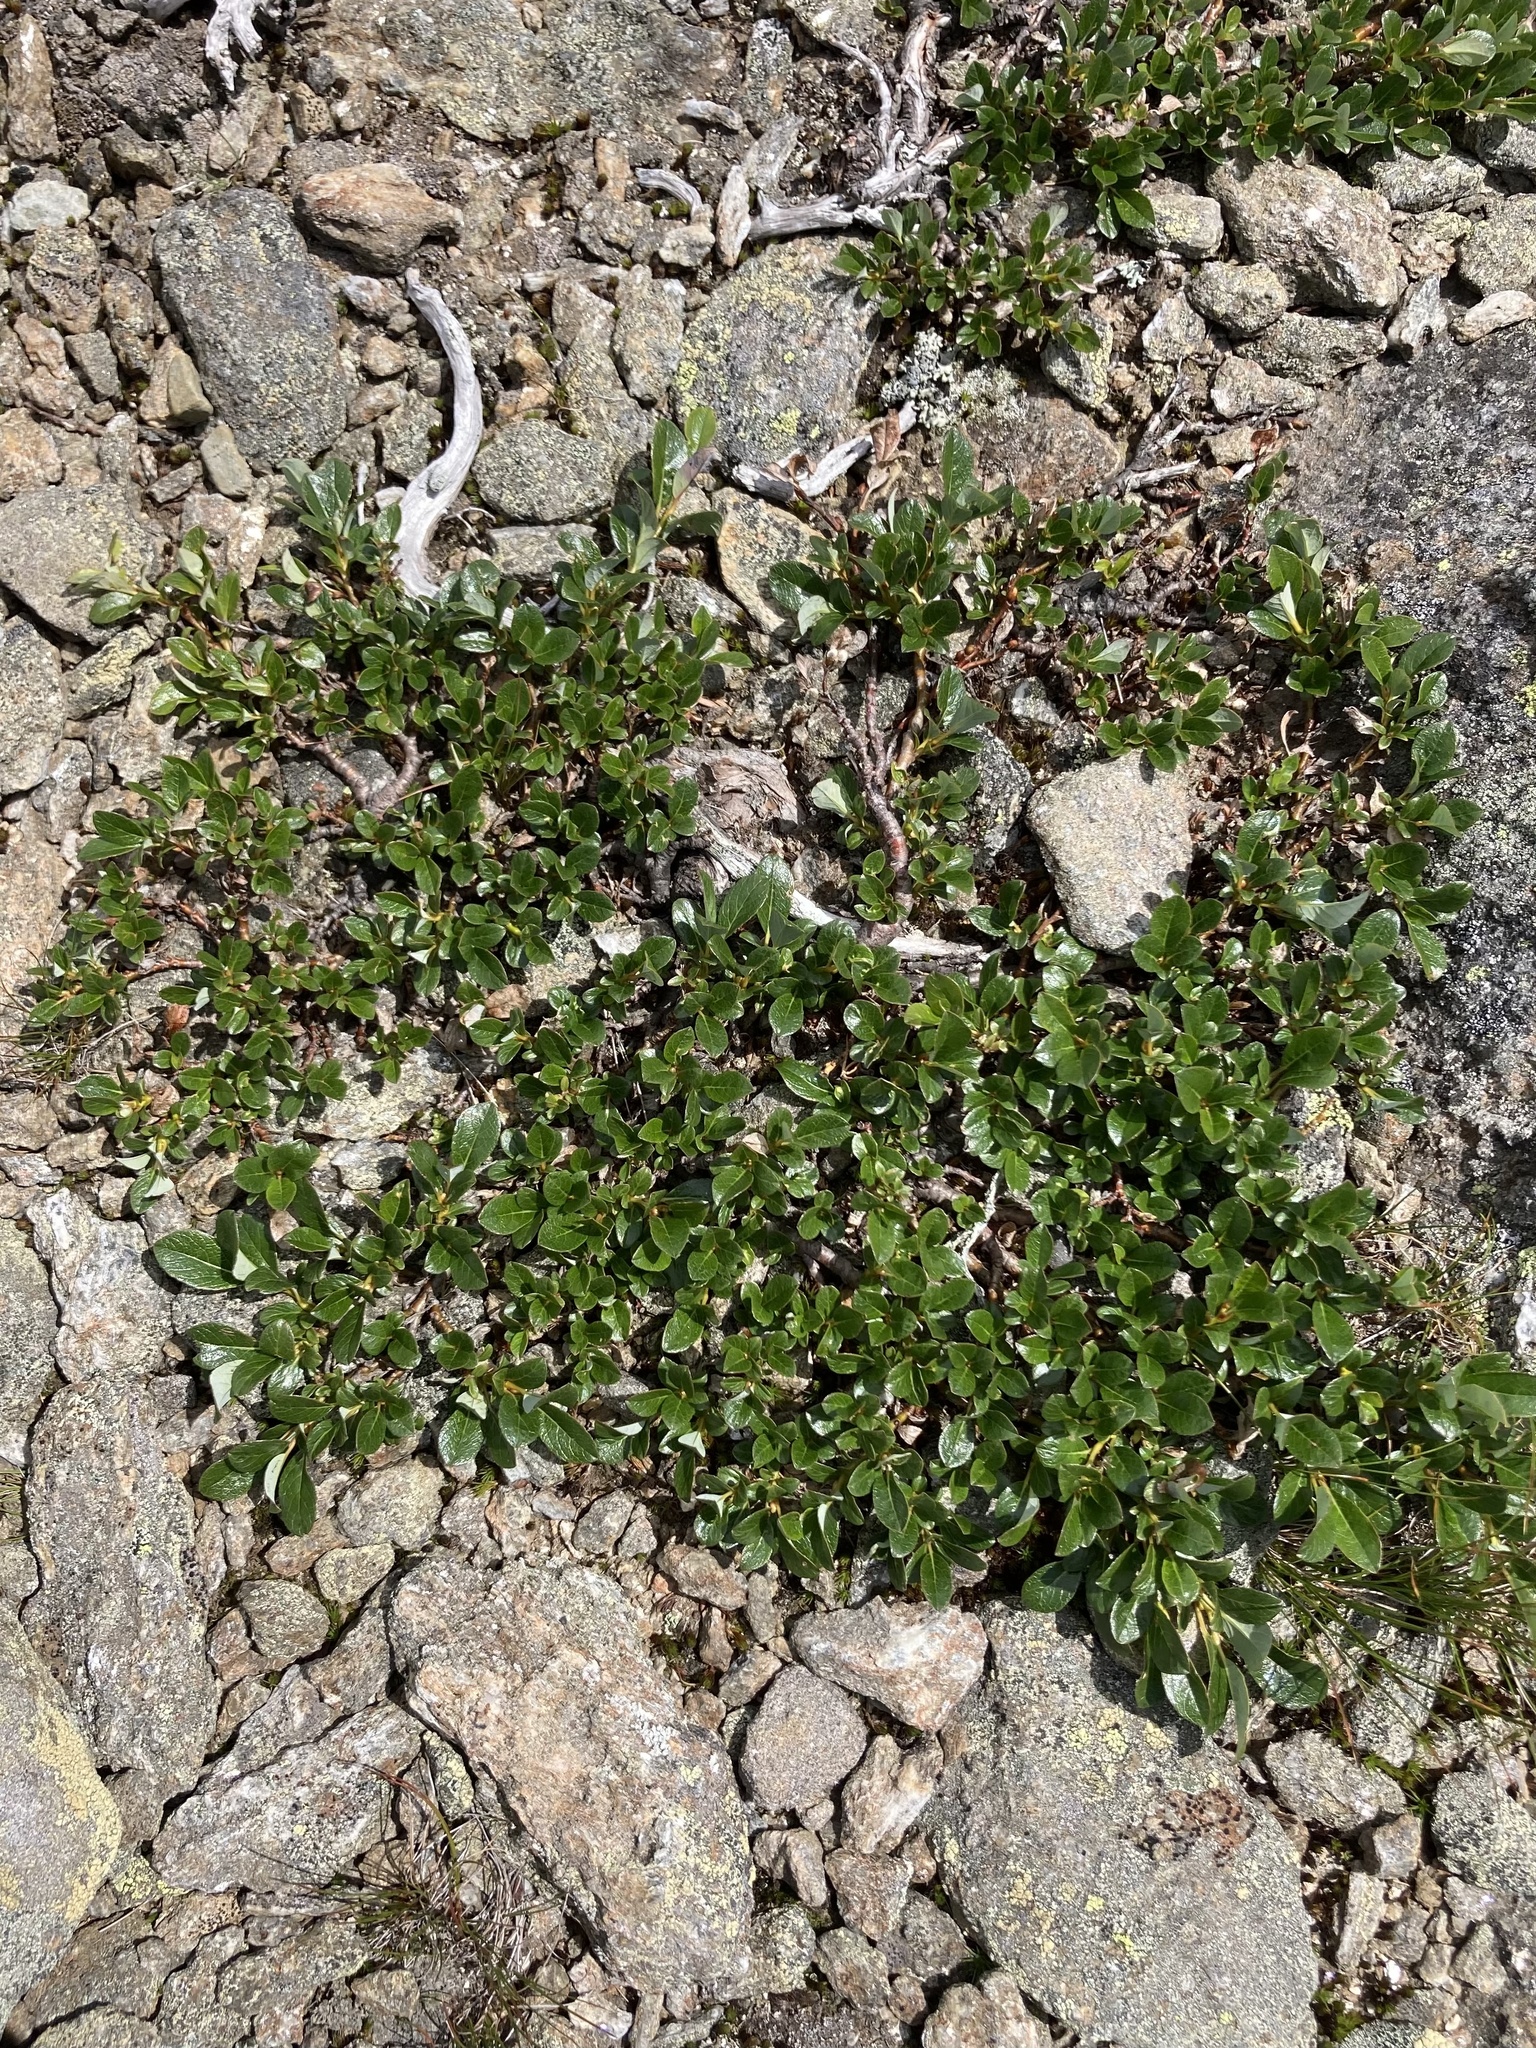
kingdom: Plantae
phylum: Tracheophyta
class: Magnoliopsida
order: Malpighiales
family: Salicaceae
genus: Salix
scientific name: Salix uva-ursi
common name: Bearberry willow
